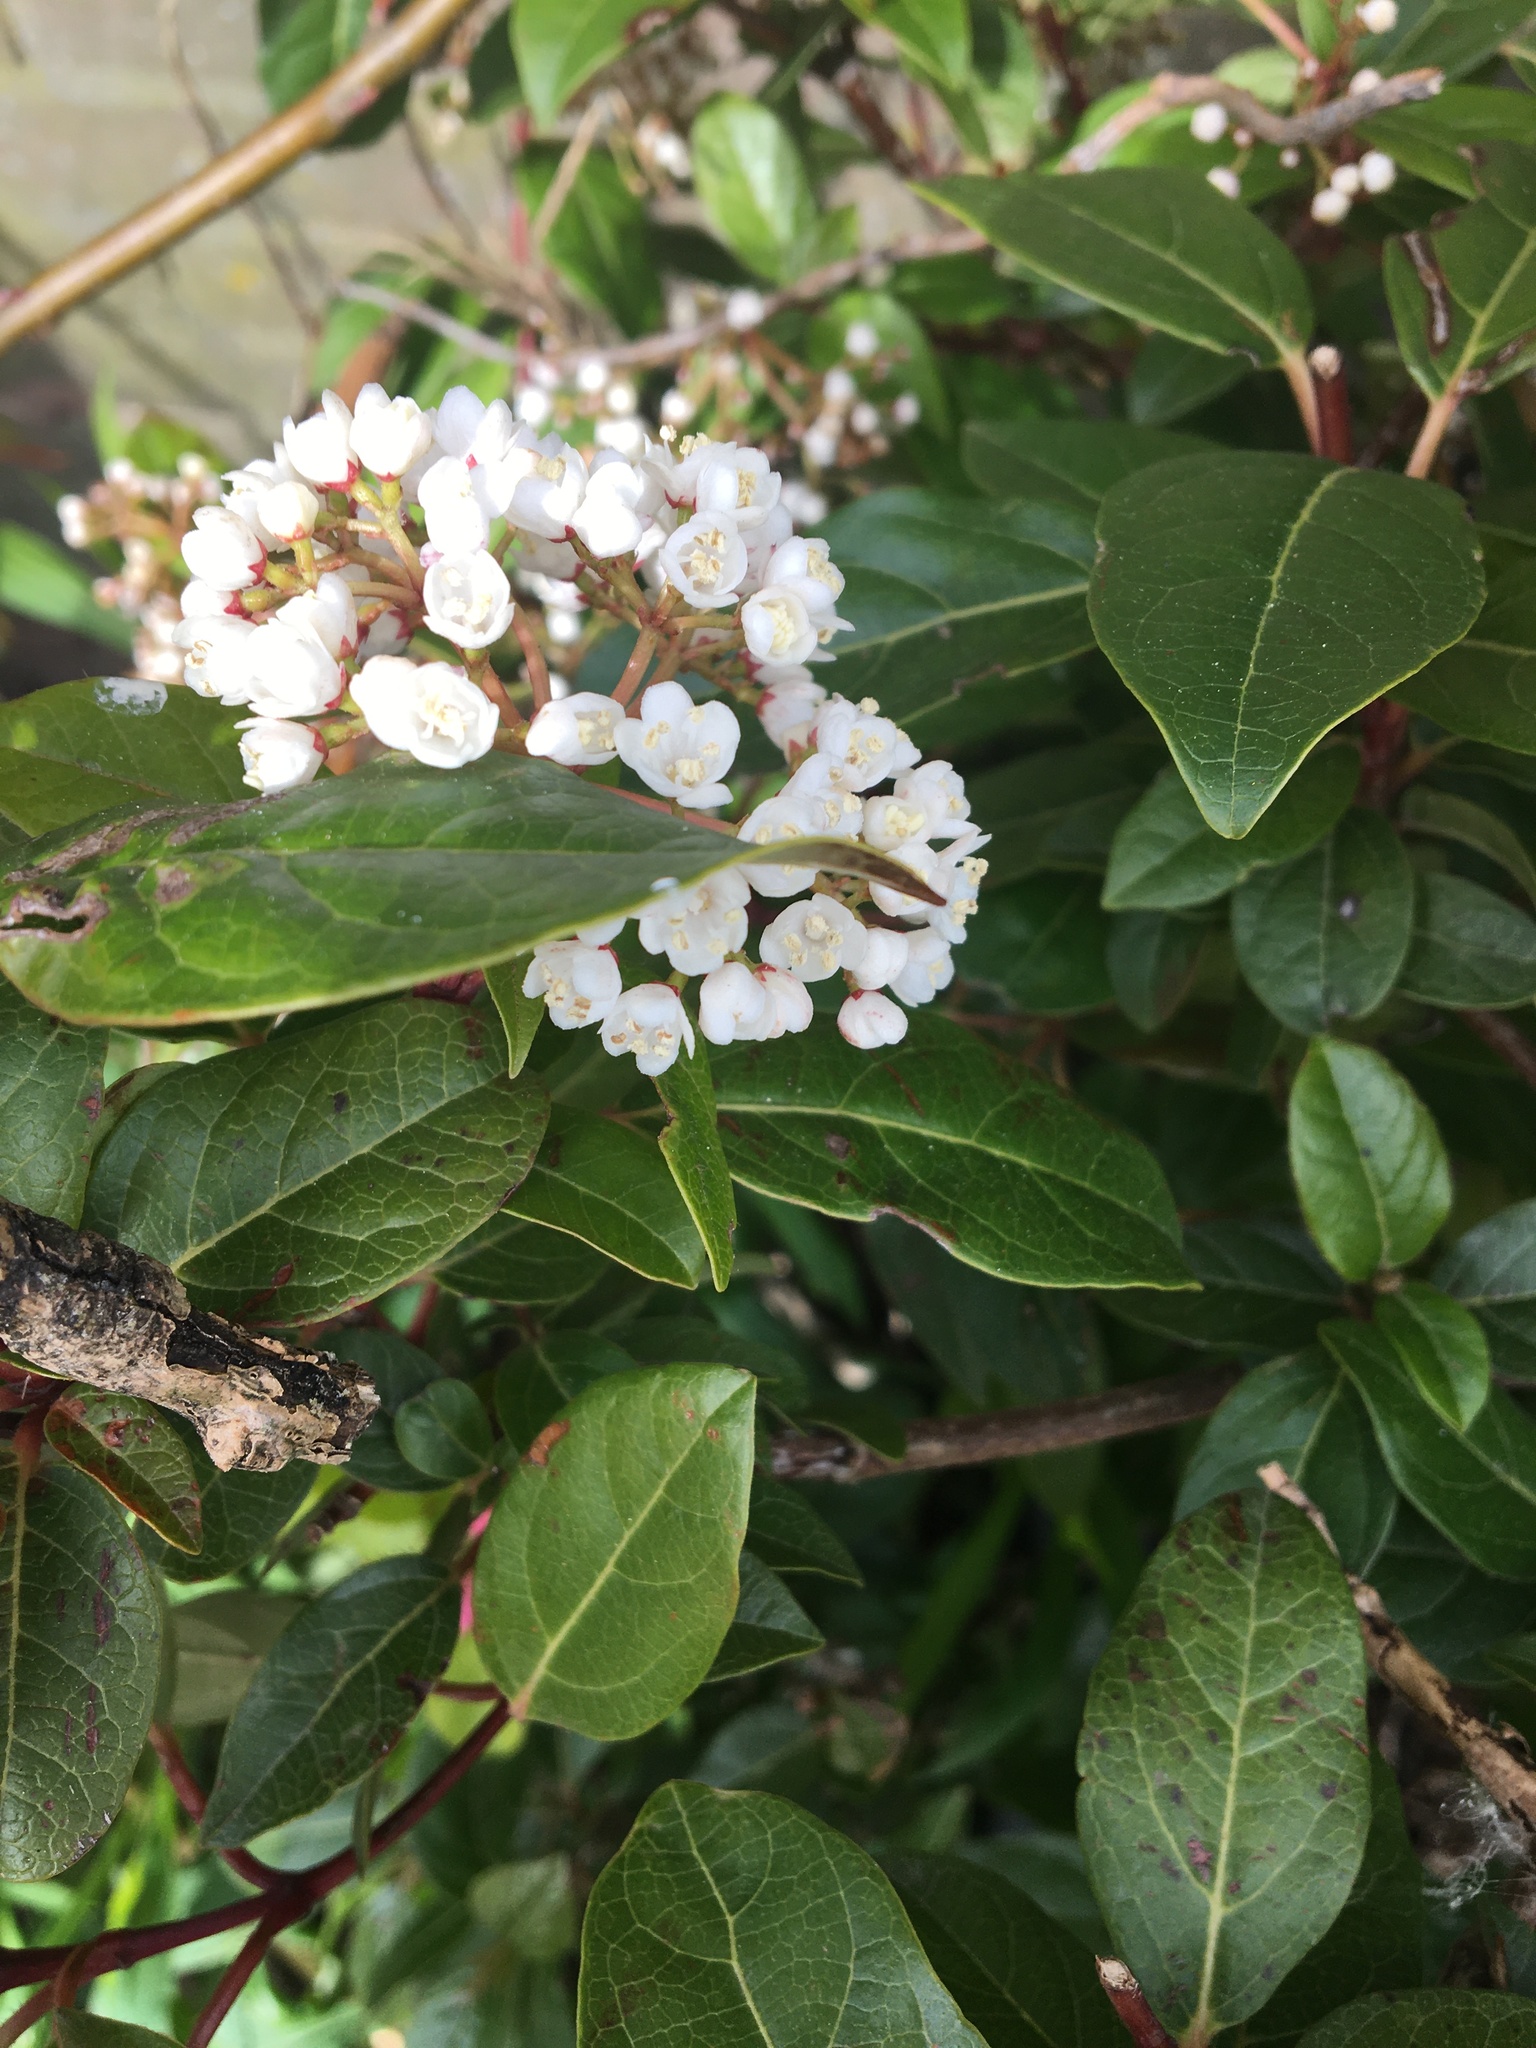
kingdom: Plantae
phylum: Tracheophyta
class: Magnoliopsida
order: Dipsacales
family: Viburnaceae
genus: Viburnum
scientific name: Viburnum tinus
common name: Laurustinus
